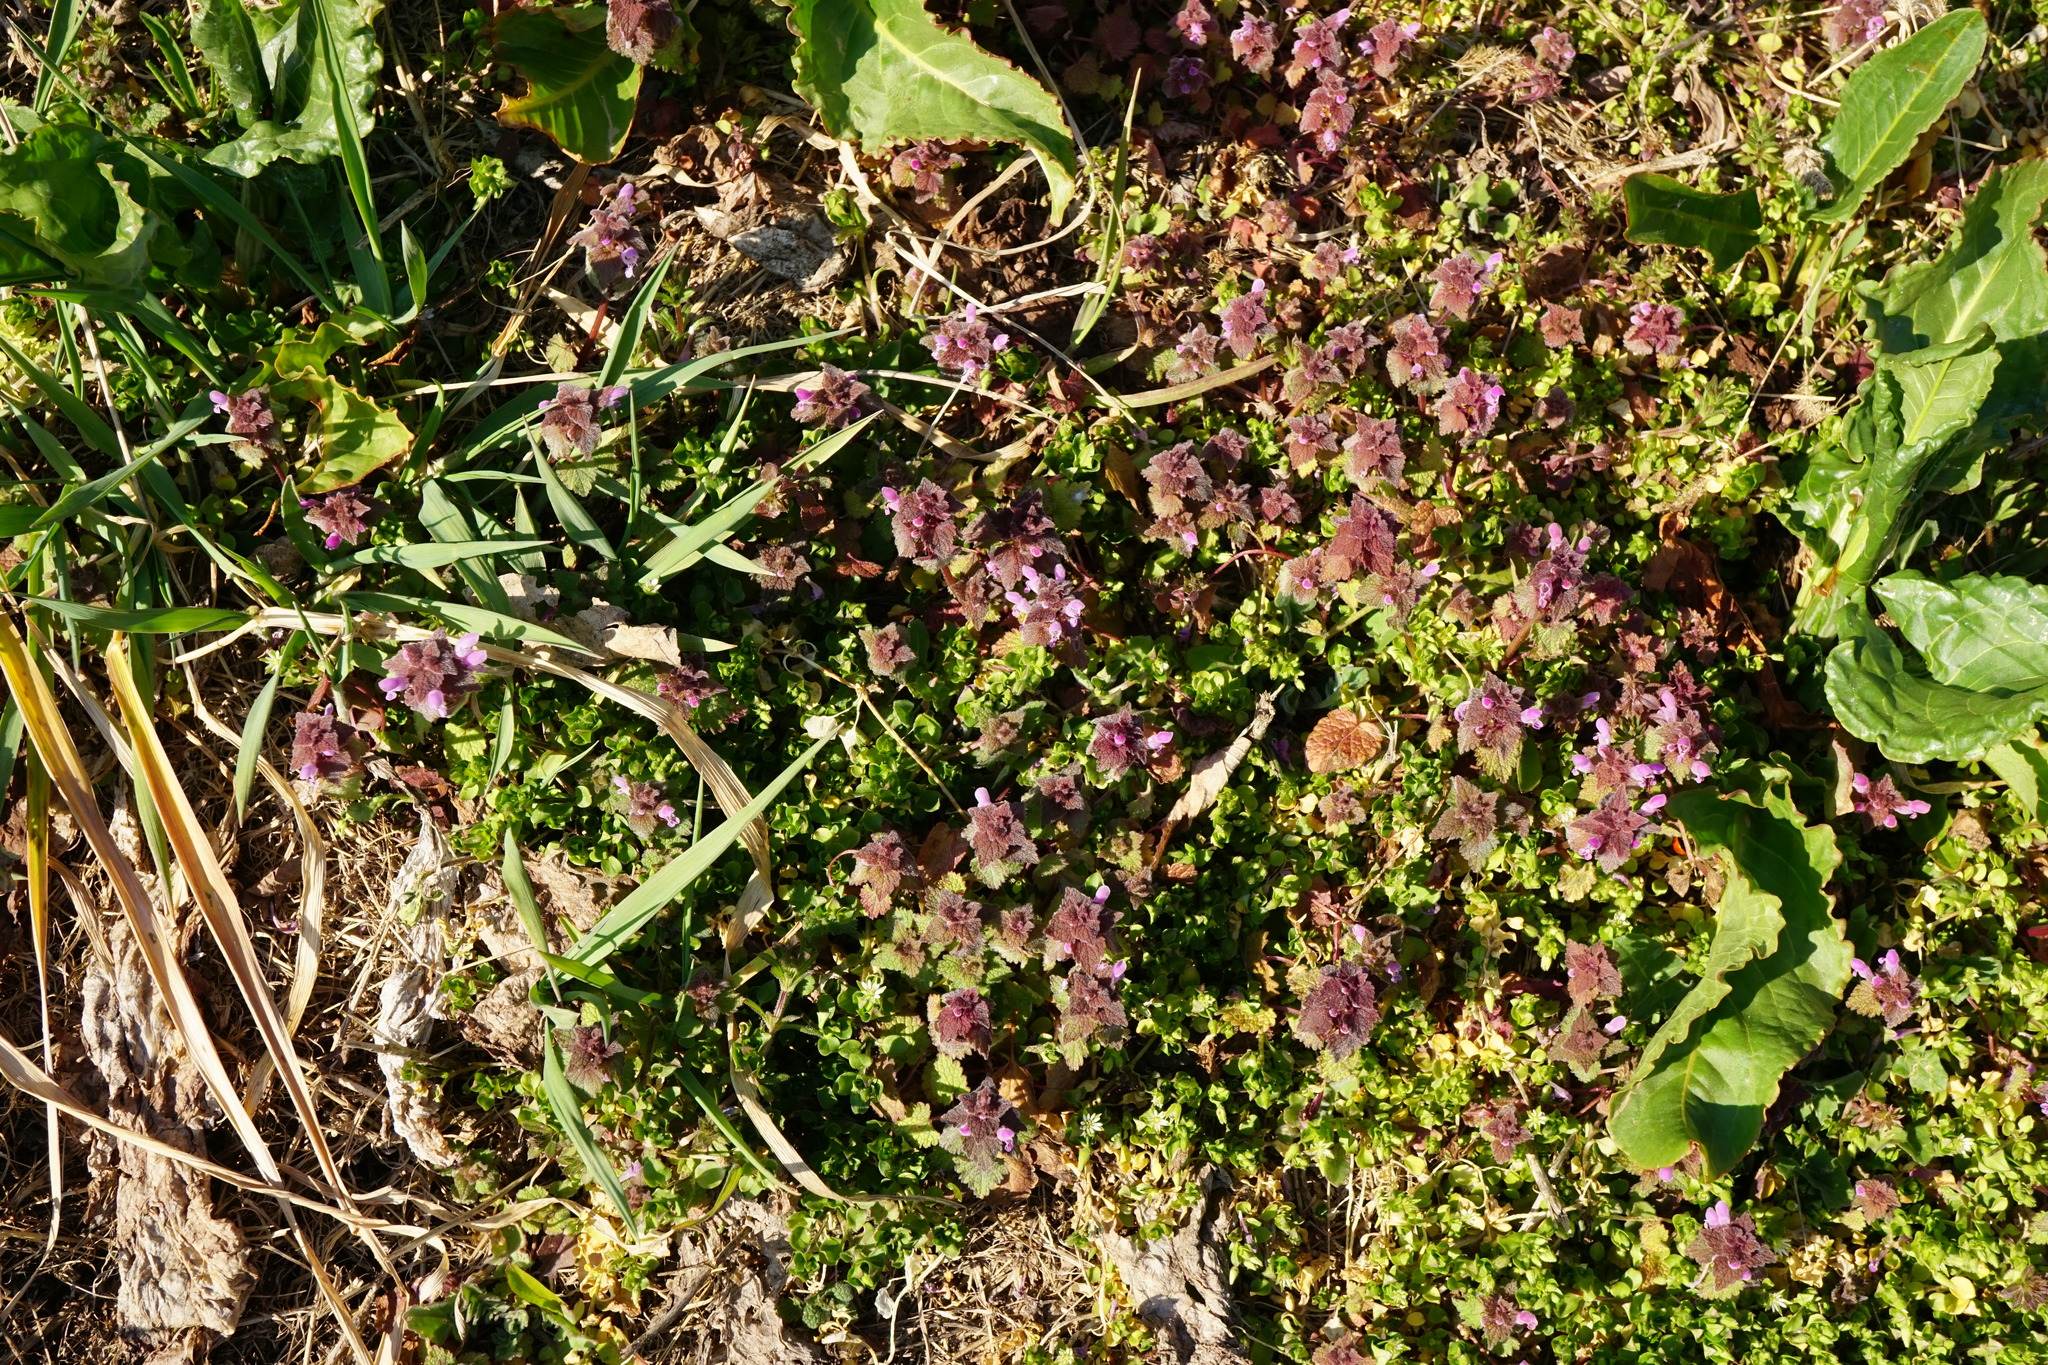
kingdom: Plantae
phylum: Tracheophyta
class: Magnoliopsida
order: Lamiales
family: Lamiaceae
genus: Lamium
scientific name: Lamium purpureum
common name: Red dead-nettle
